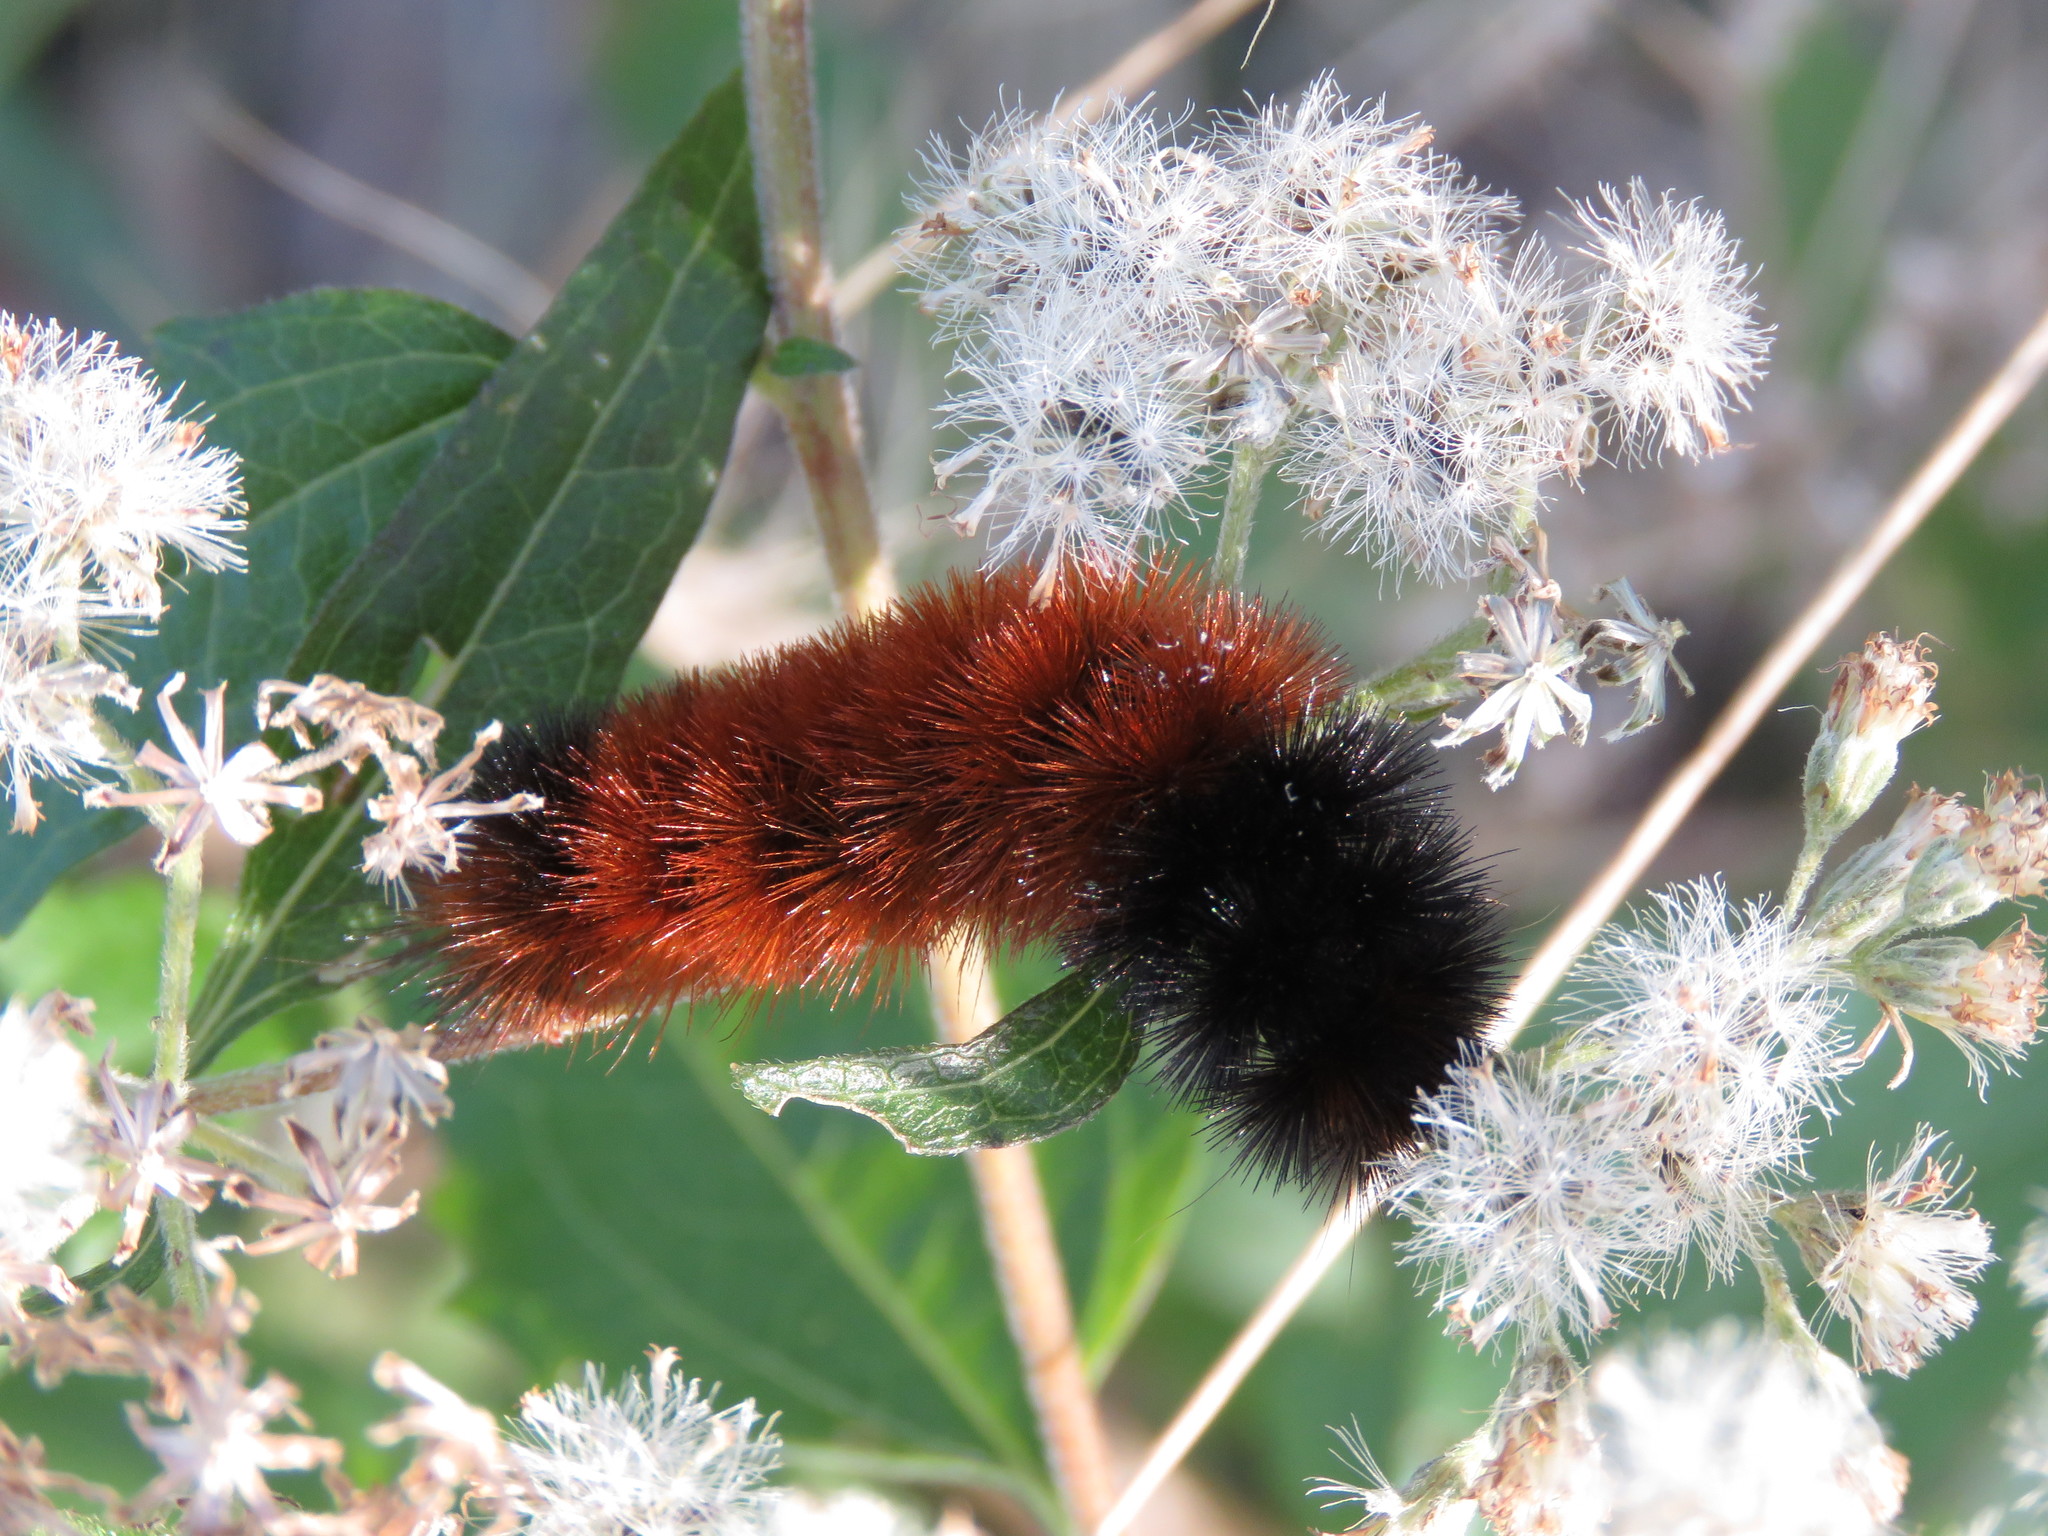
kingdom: Animalia
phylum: Arthropoda
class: Insecta
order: Lepidoptera
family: Erebidae
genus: Pyrrharctia
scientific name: Pyrrharctia isabella
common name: Isabella tiger moth
